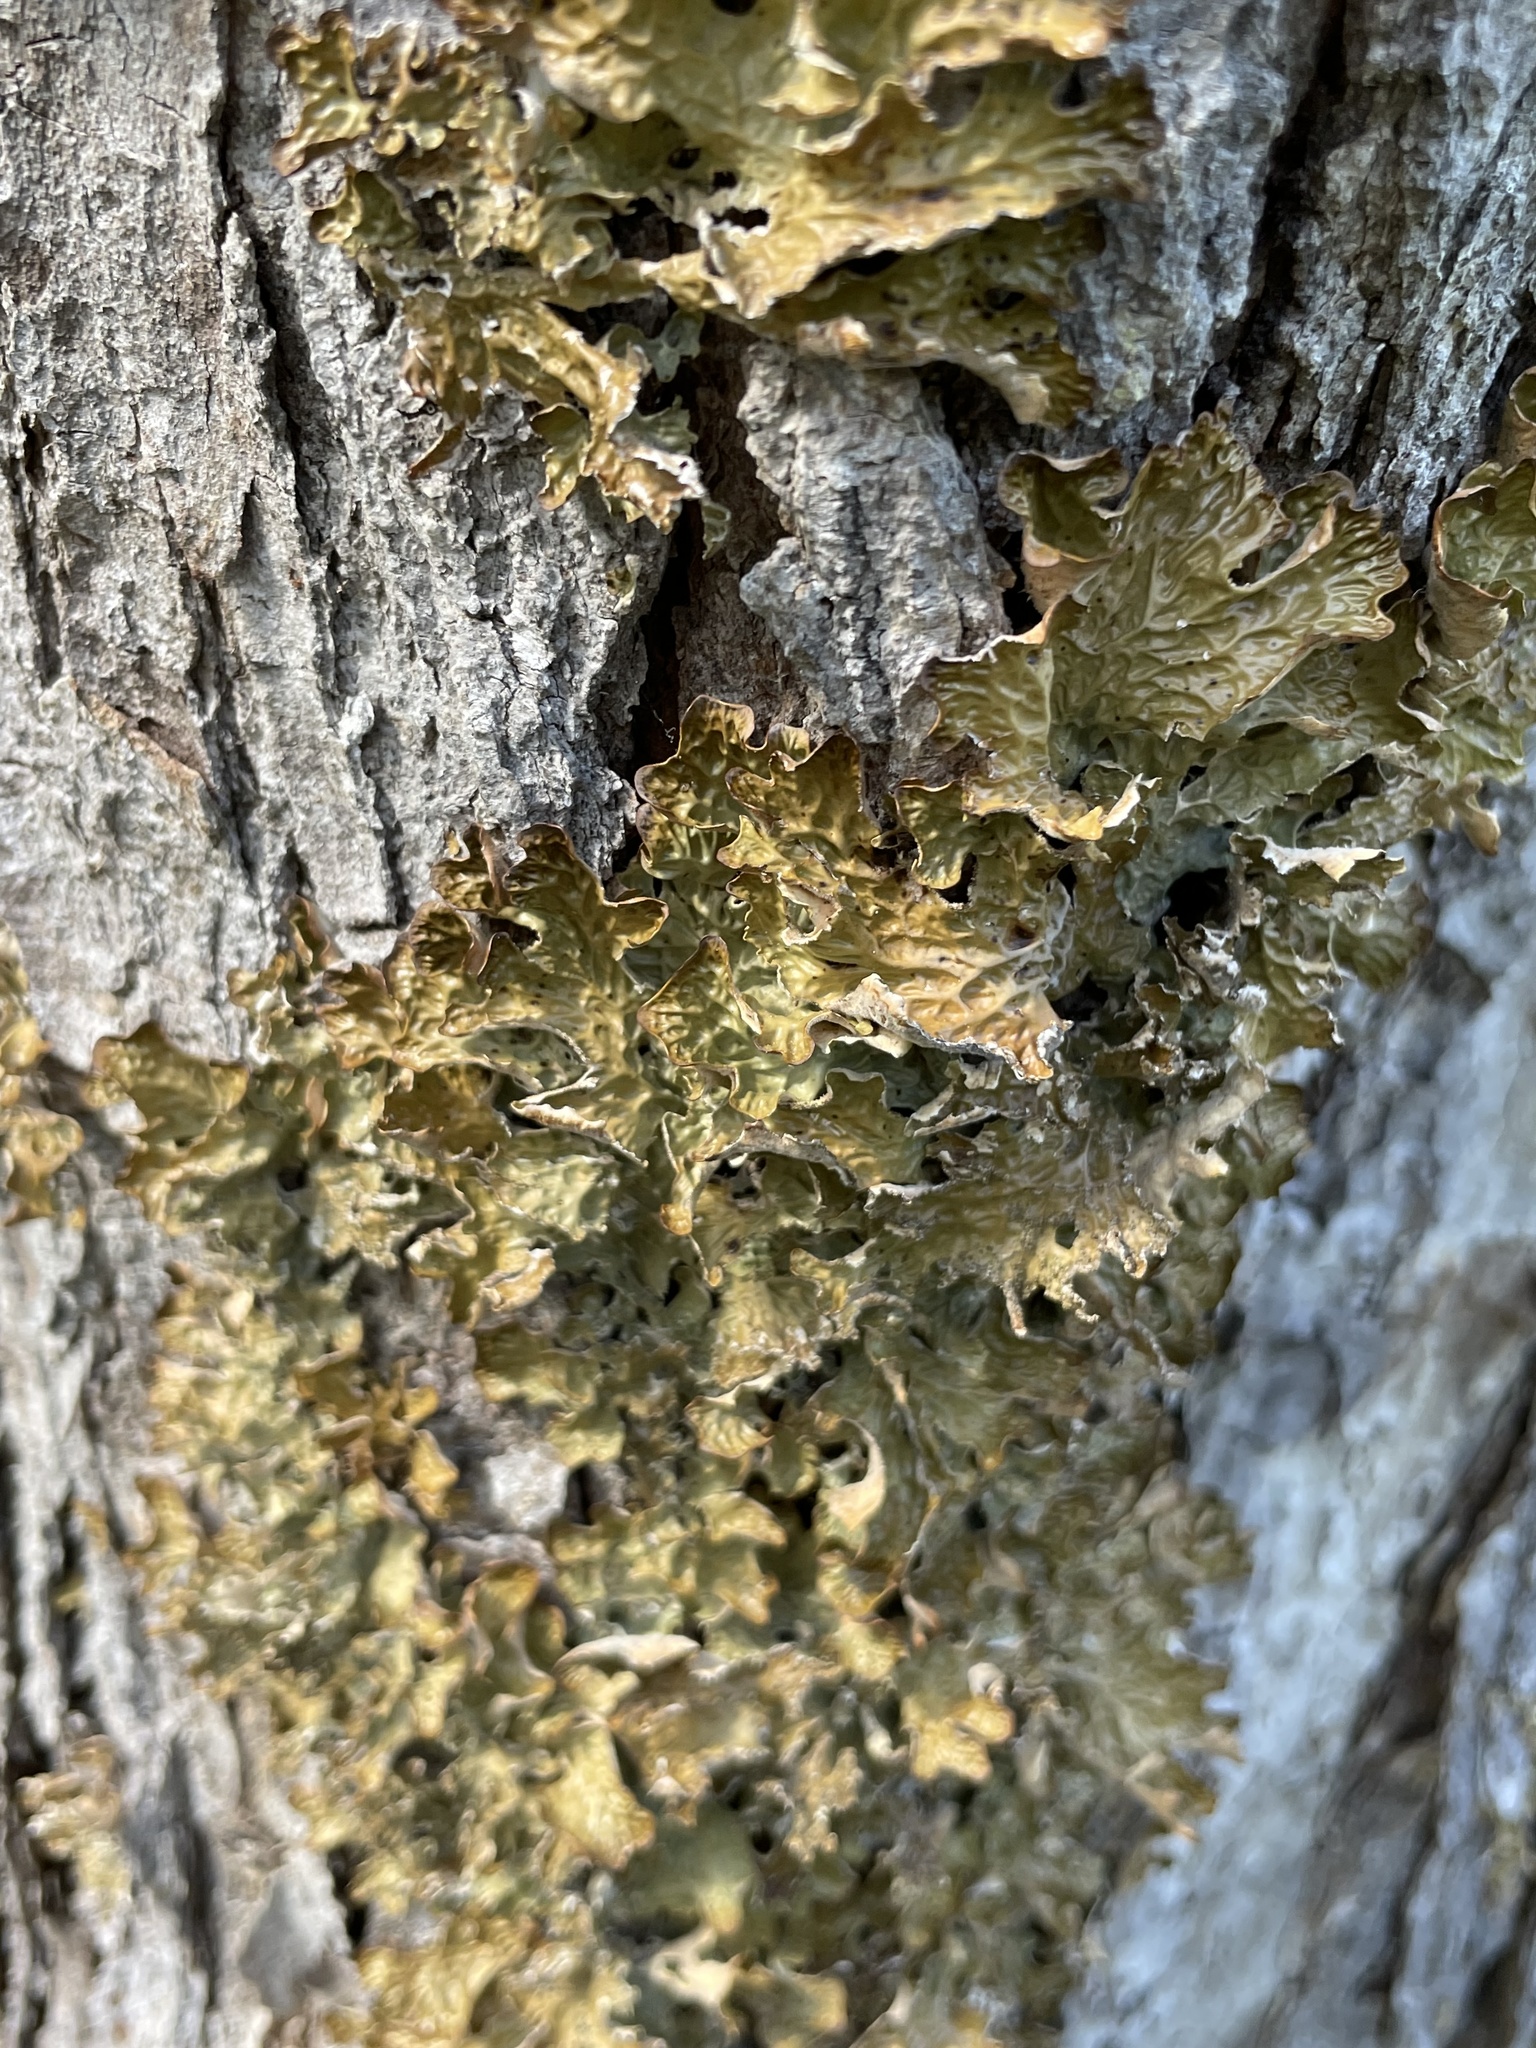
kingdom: Fungi
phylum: Ascomycota
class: Lecanoromycetes
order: Peltigerales
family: Lobariaceae
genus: Lobaria
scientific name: Lobaria pulmonaria
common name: Lungwort
